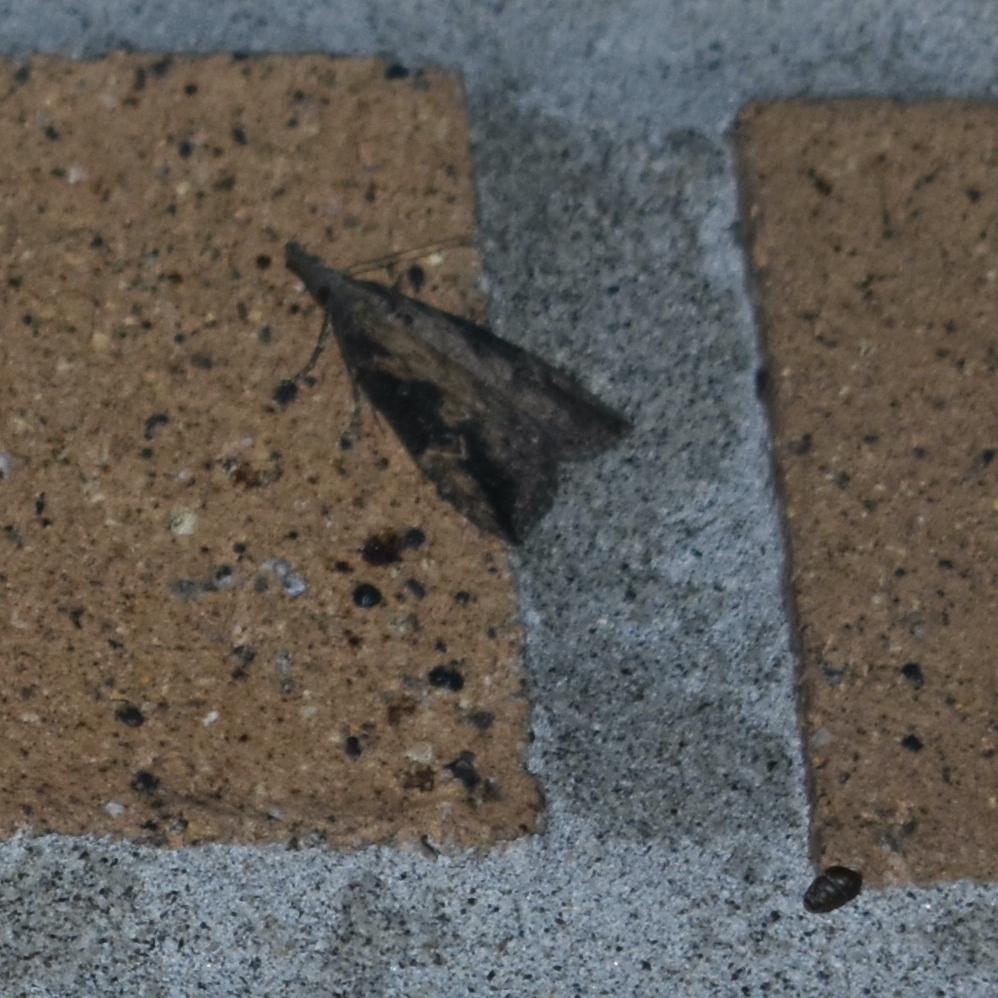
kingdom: Animalia
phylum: Arthropoda
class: Insecta
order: Lepidoptera
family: Erebidae
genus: Hypena
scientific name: Hypena humuli
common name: Hop vine snout
